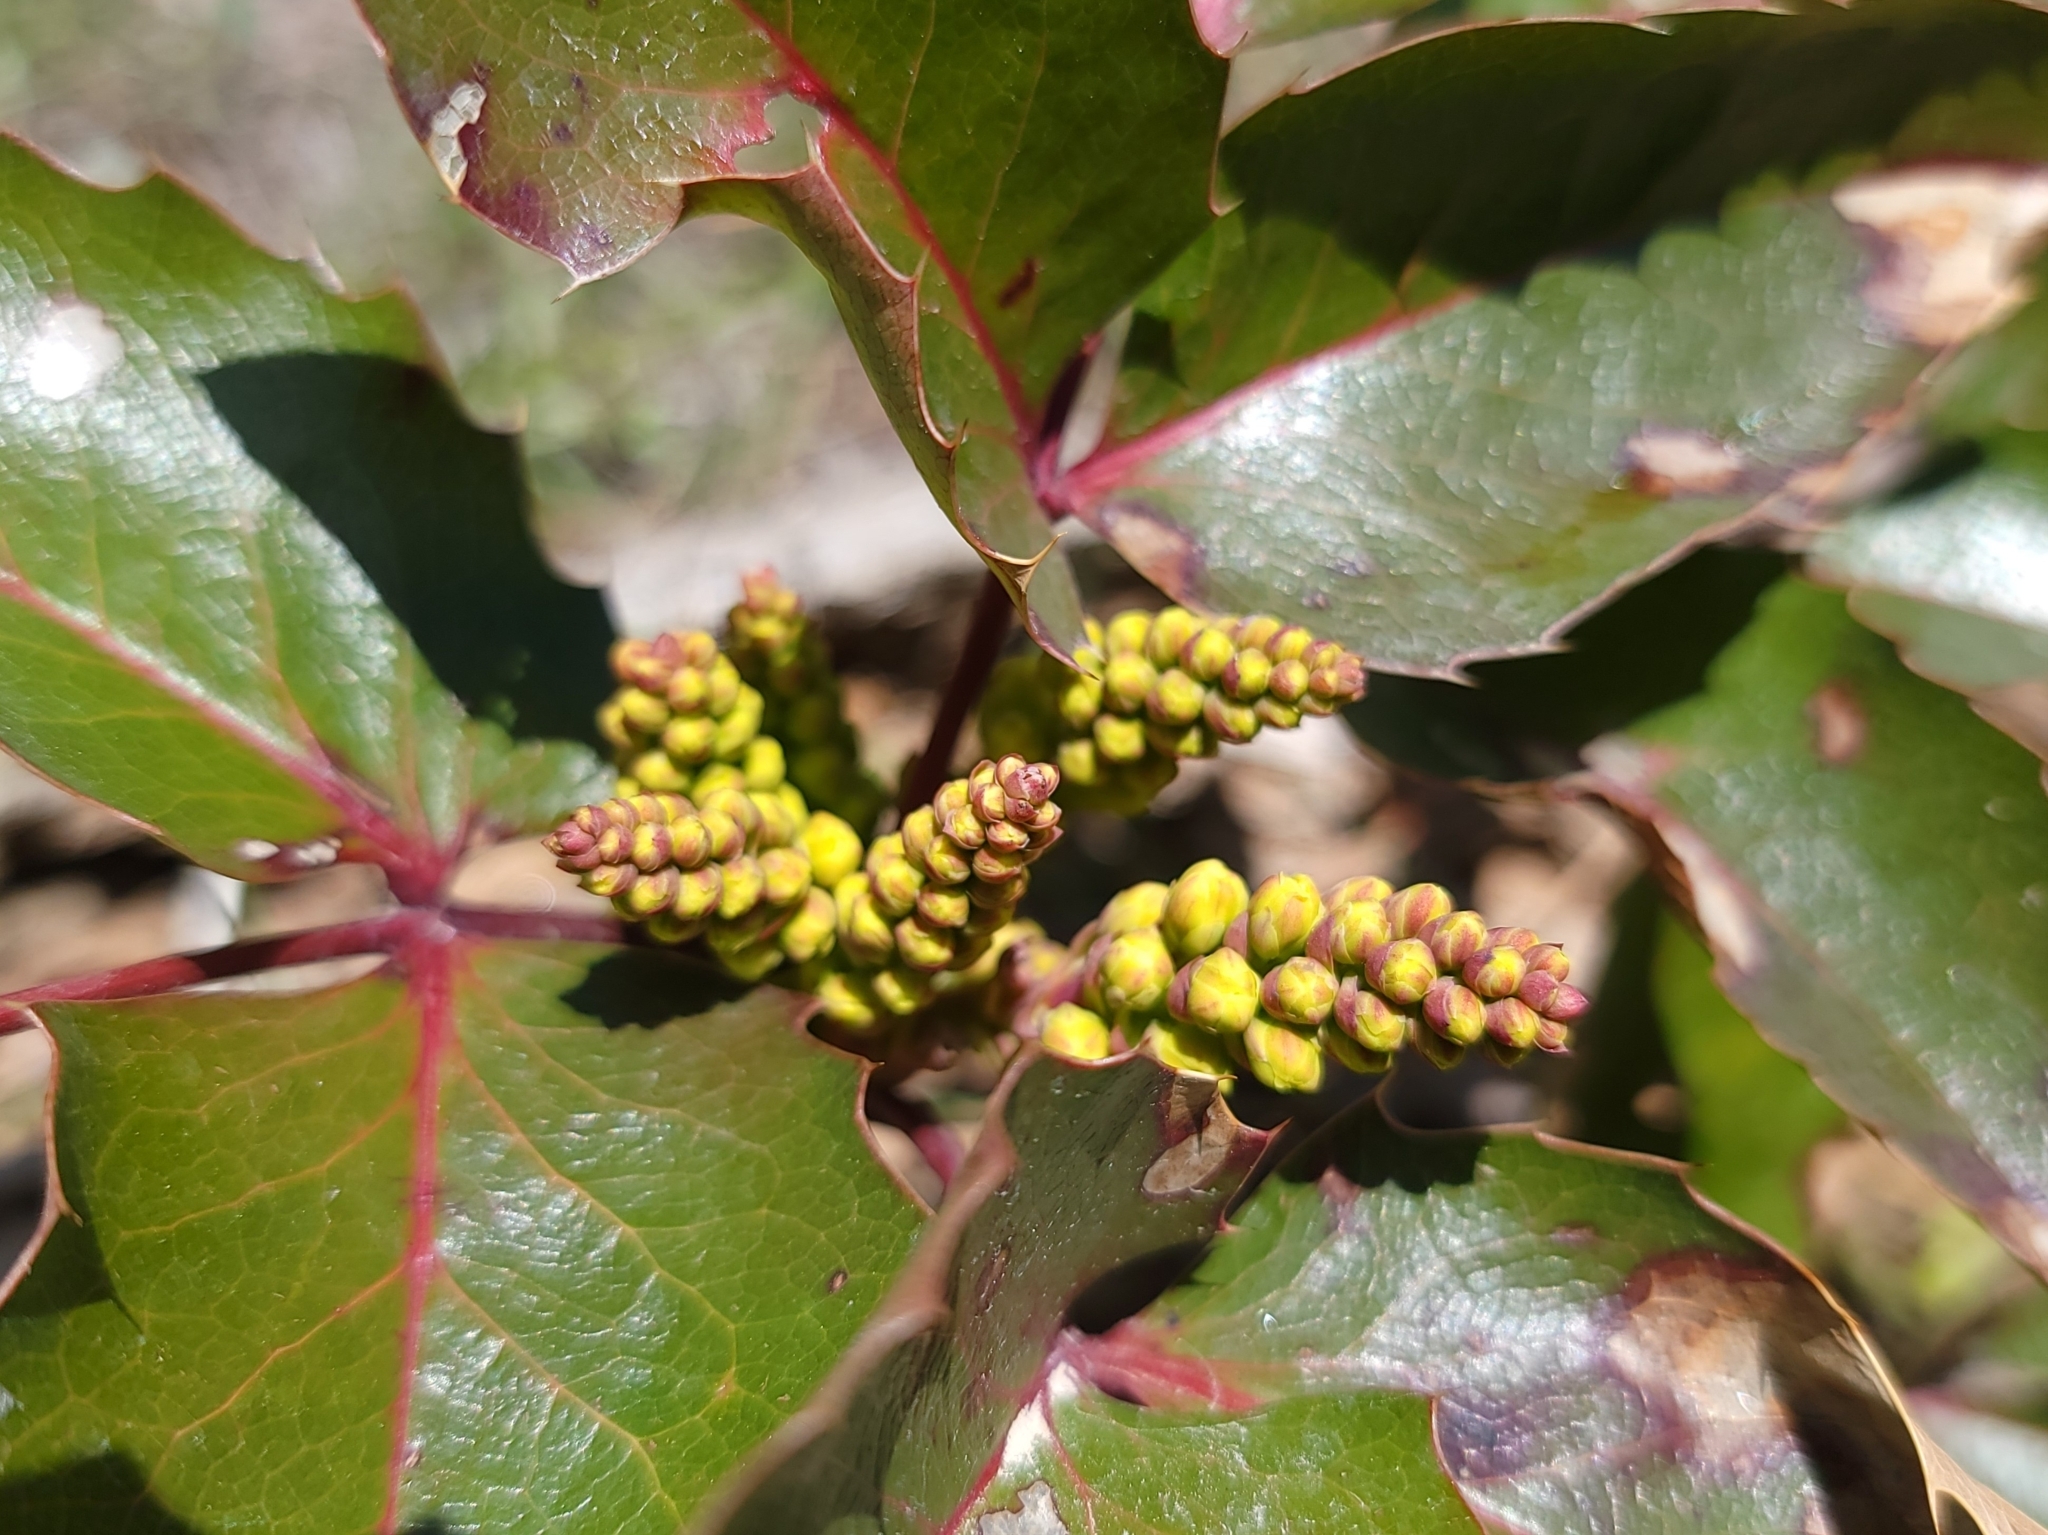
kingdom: Plantae
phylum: Tracheophyta
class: Magnoliopsida
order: Ranunculales
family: Berberidaceae
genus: Mahonia
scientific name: Mahonia repens
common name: Creeping oregon-grape
